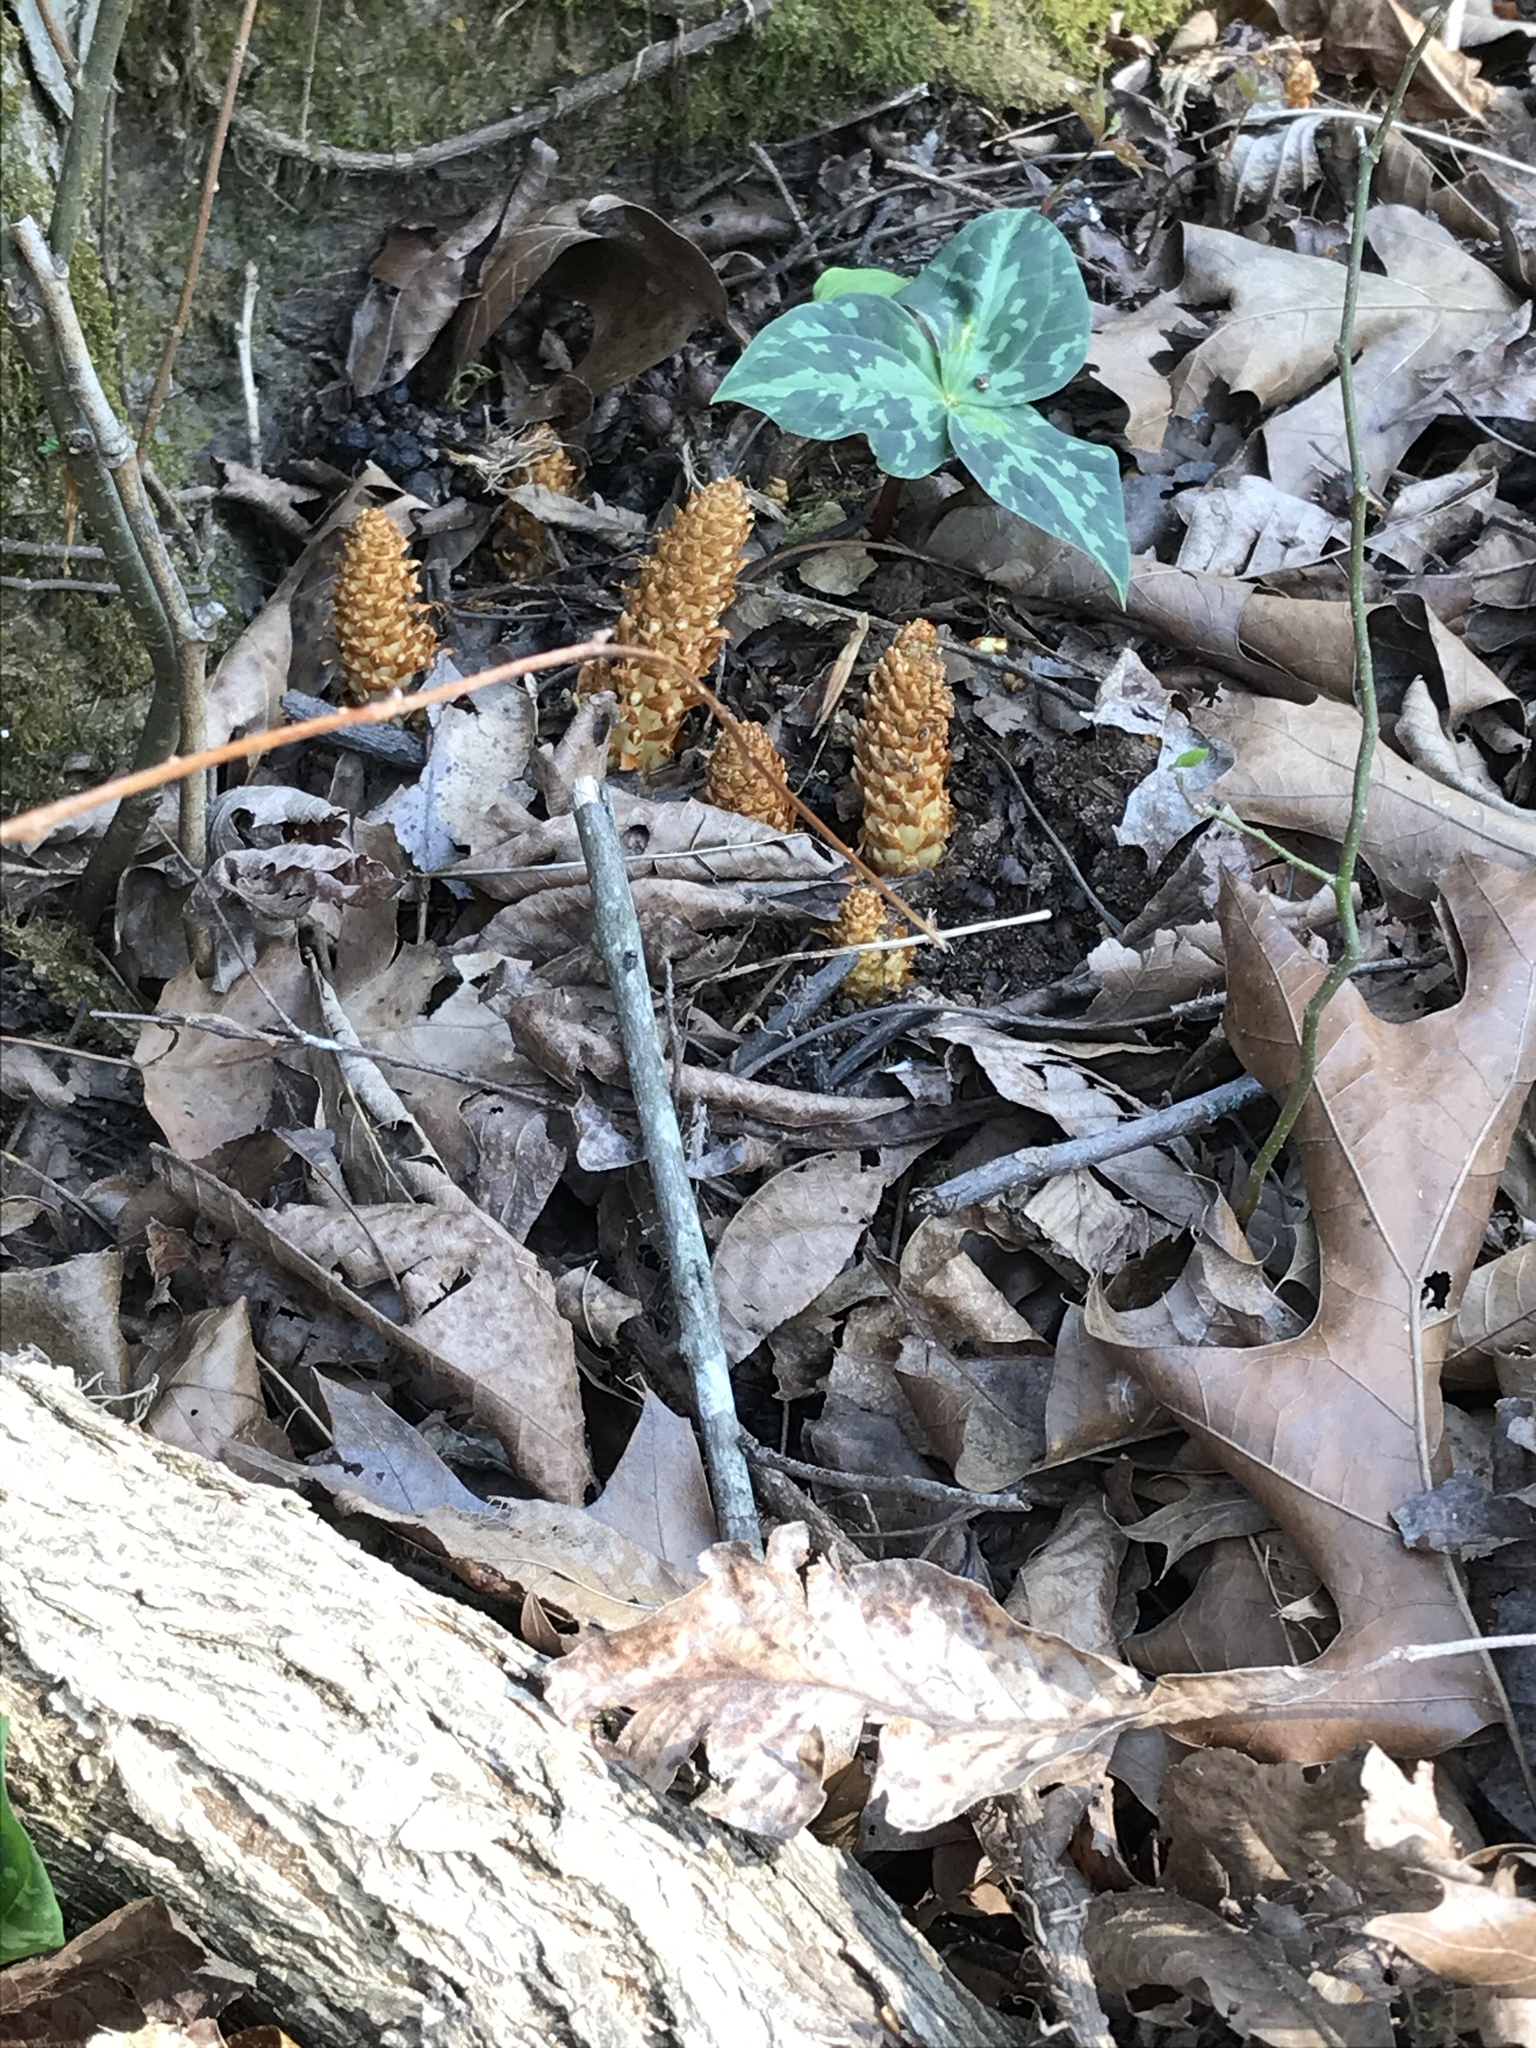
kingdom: Plantae
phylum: Tracheophyta
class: Magnoliopsida
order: Lamiales
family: Orobanchaceae
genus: Conopholis
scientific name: Conopholis americana
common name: American cancer-root
